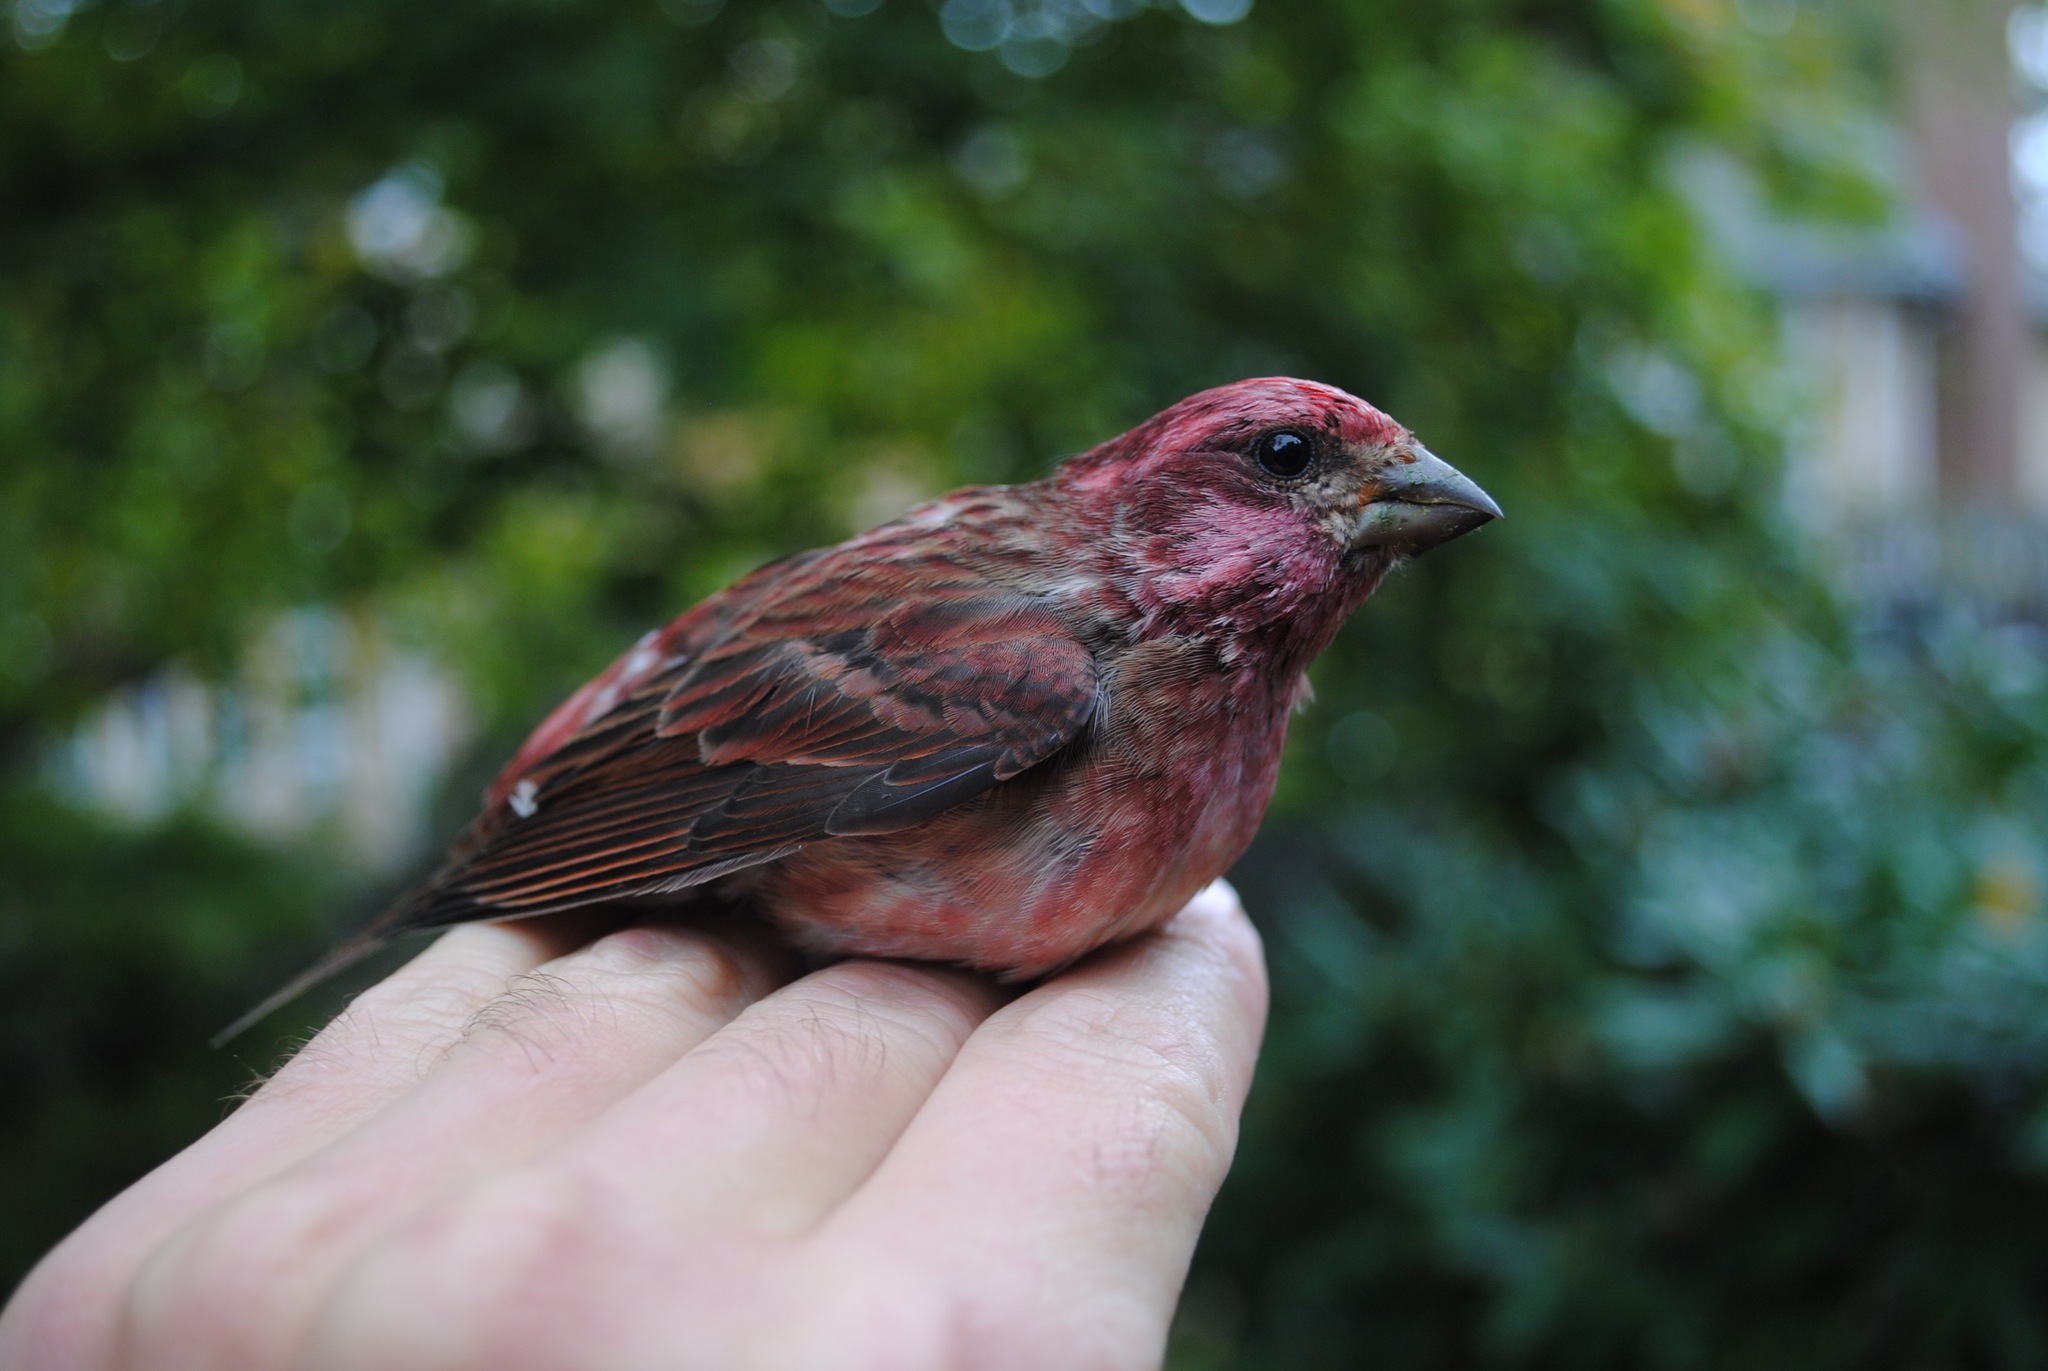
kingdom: Animalia
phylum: Chordata
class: Aves
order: Passeriformes
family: Fringillidae
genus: Haemorhous
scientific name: Haemorhous purpureus
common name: Purple finch
